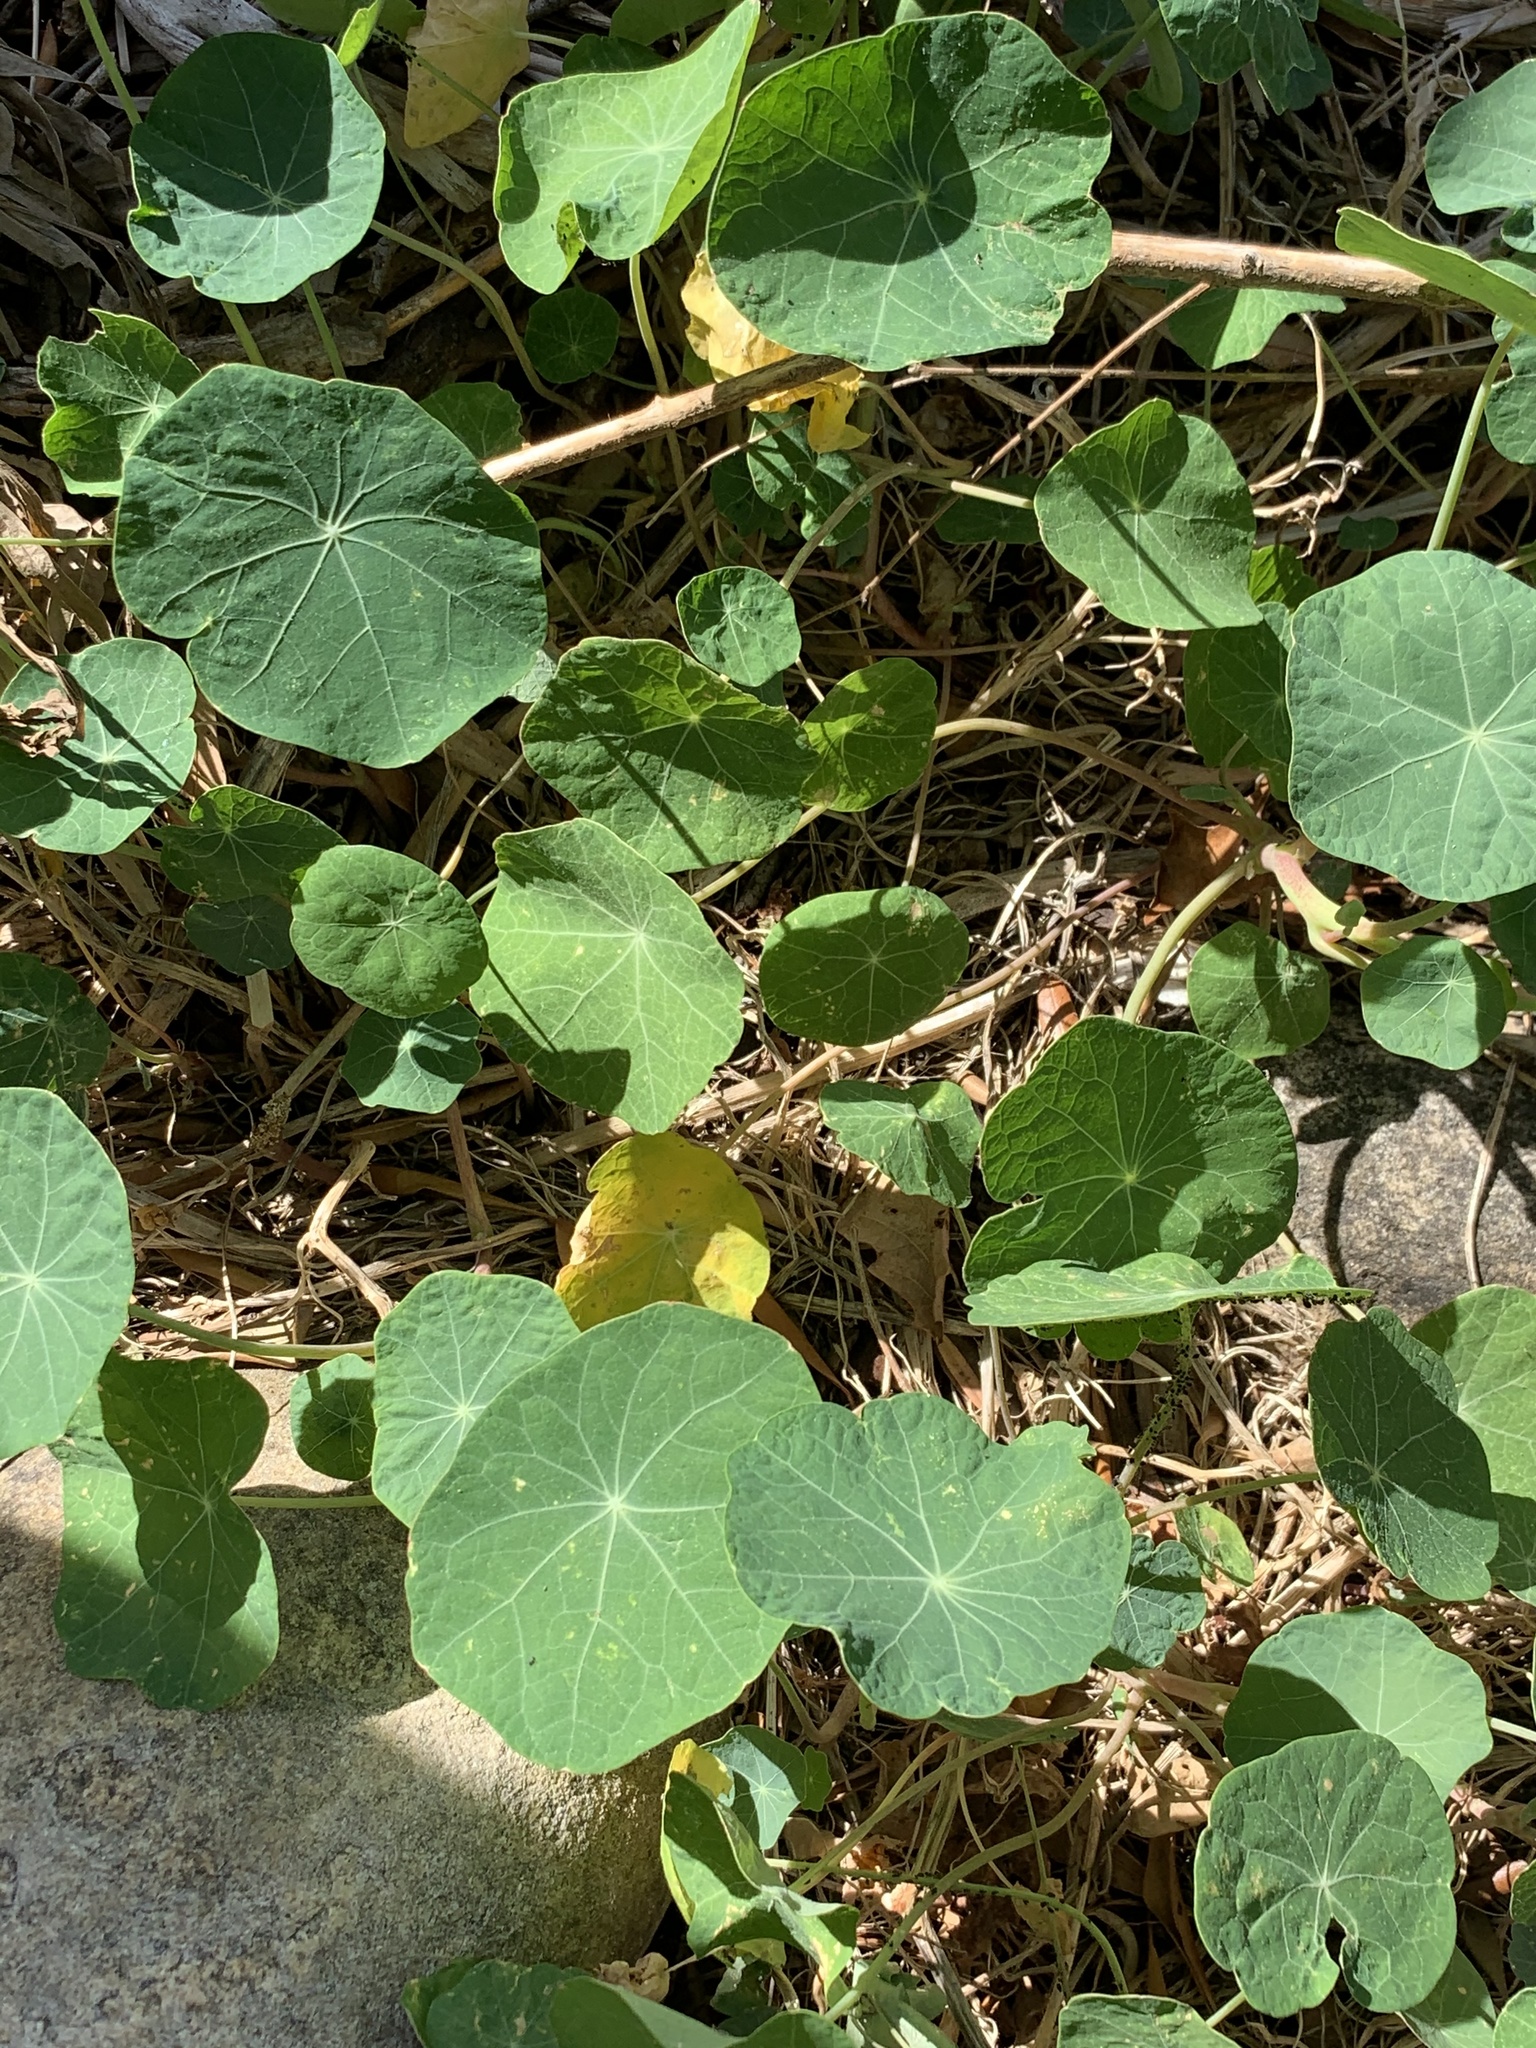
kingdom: Plantae
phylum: Tracheophyta
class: Magnoliopsida
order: Brassicales
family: Tropaeolaceae
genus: Tropaeolum
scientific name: Tropaeolum majus
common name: Nasturtium
